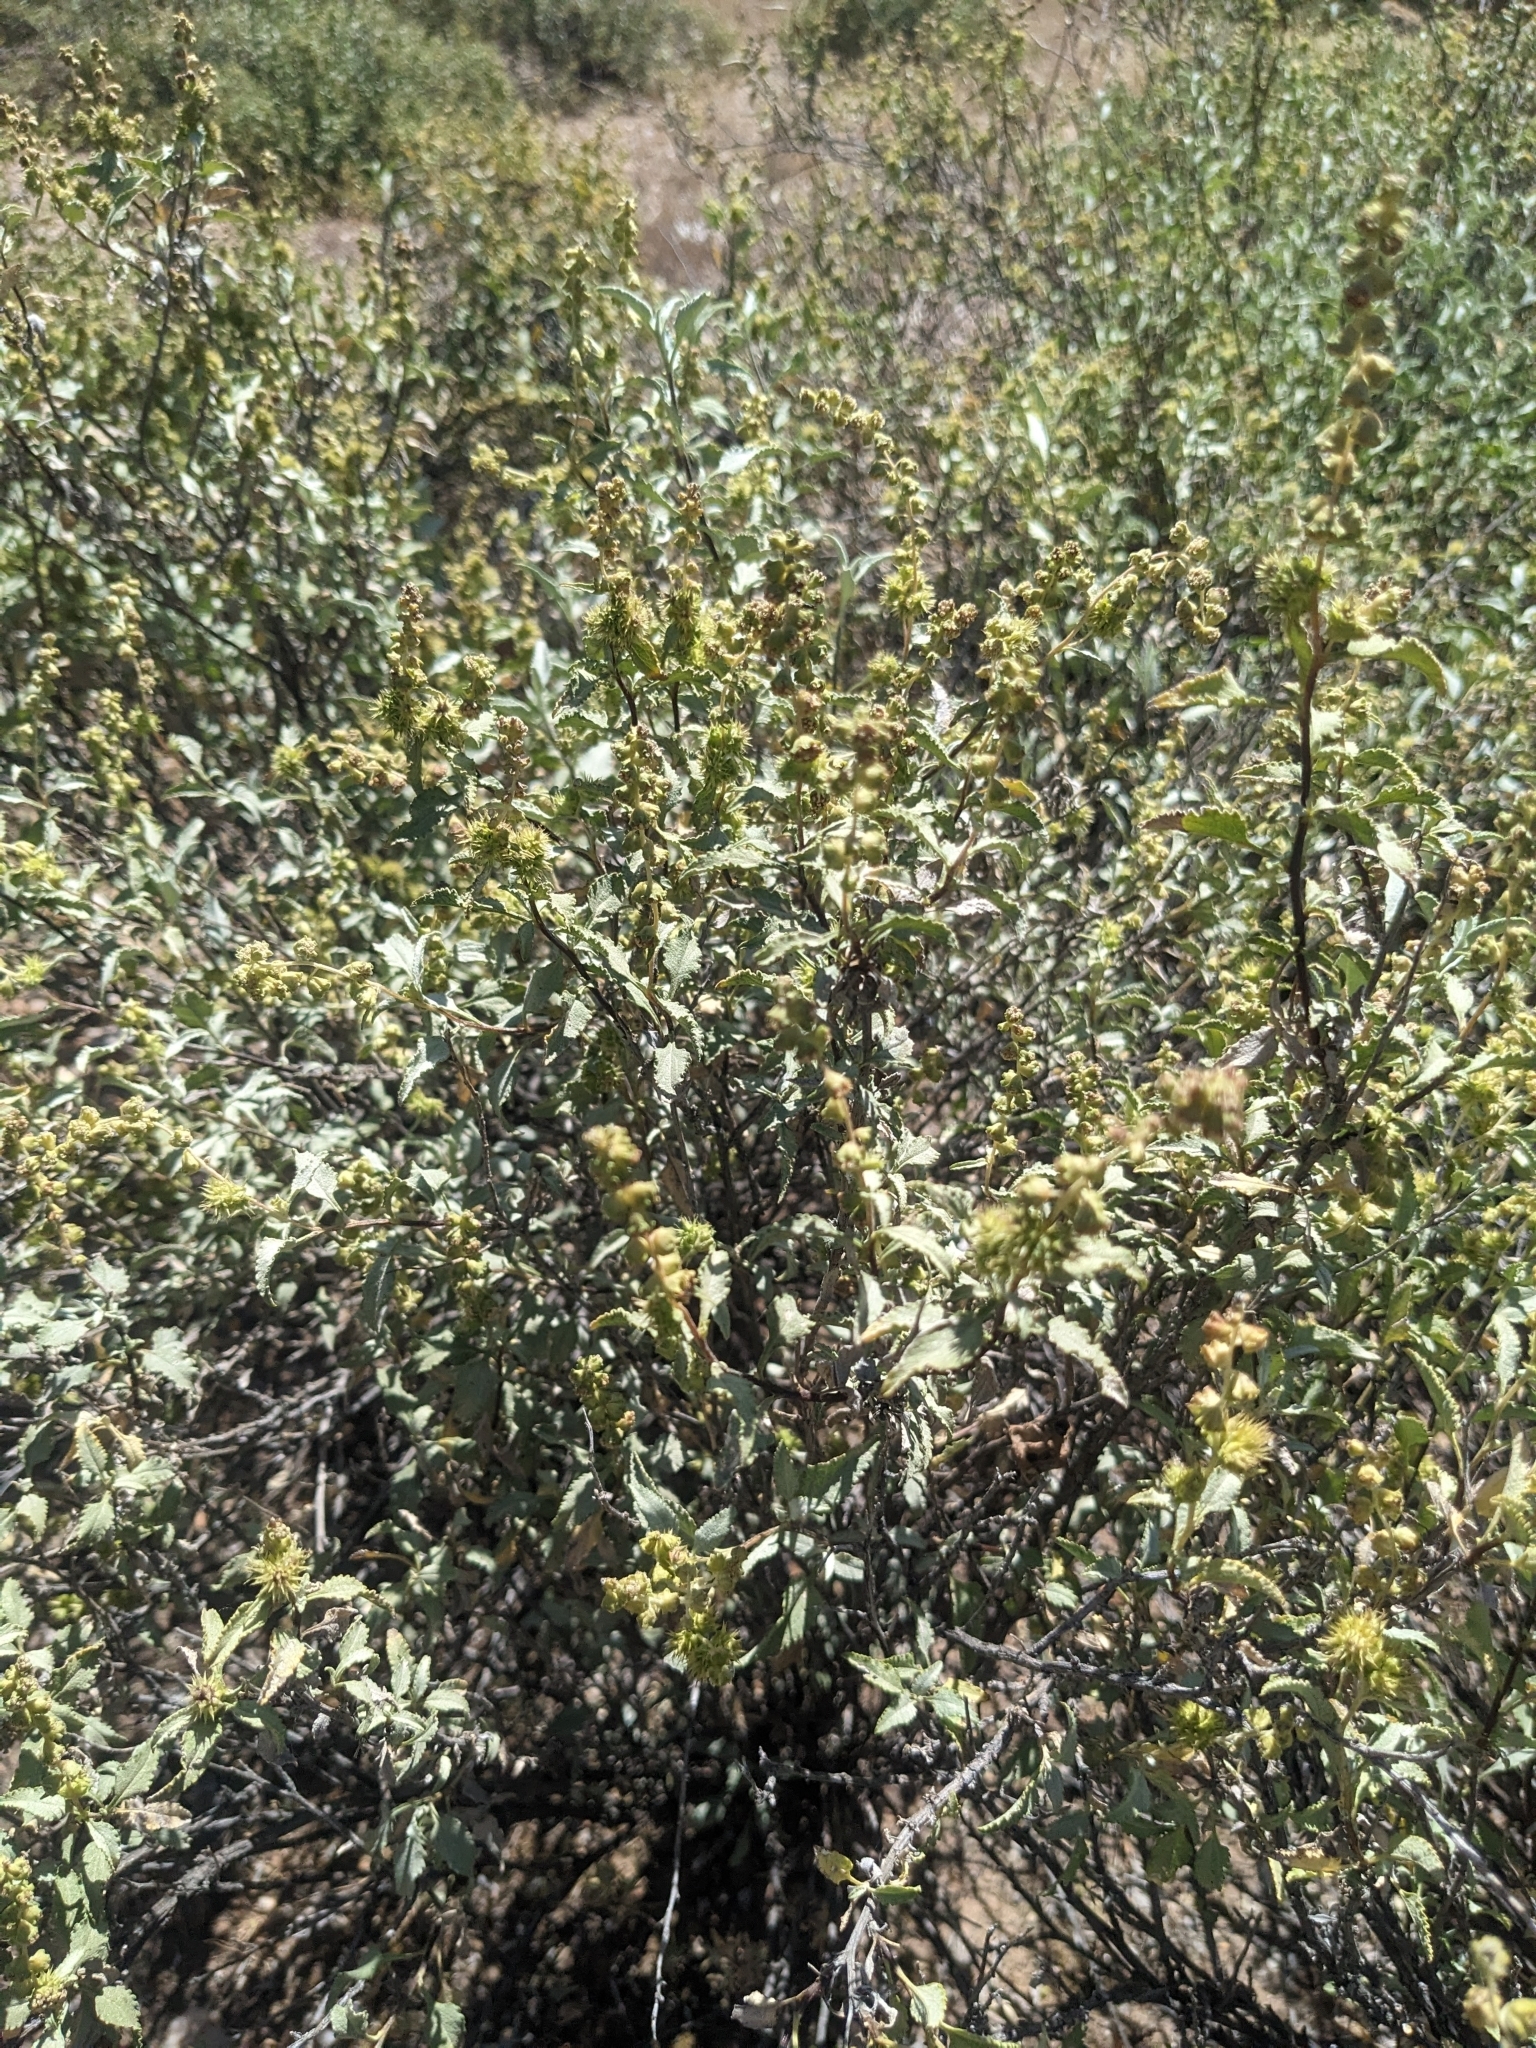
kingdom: Plantae
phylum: Tracheophyta
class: Magnoliopsida
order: Asterales
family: Asteraceae
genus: Ambrosia
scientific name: Ambrosia deltoidea
